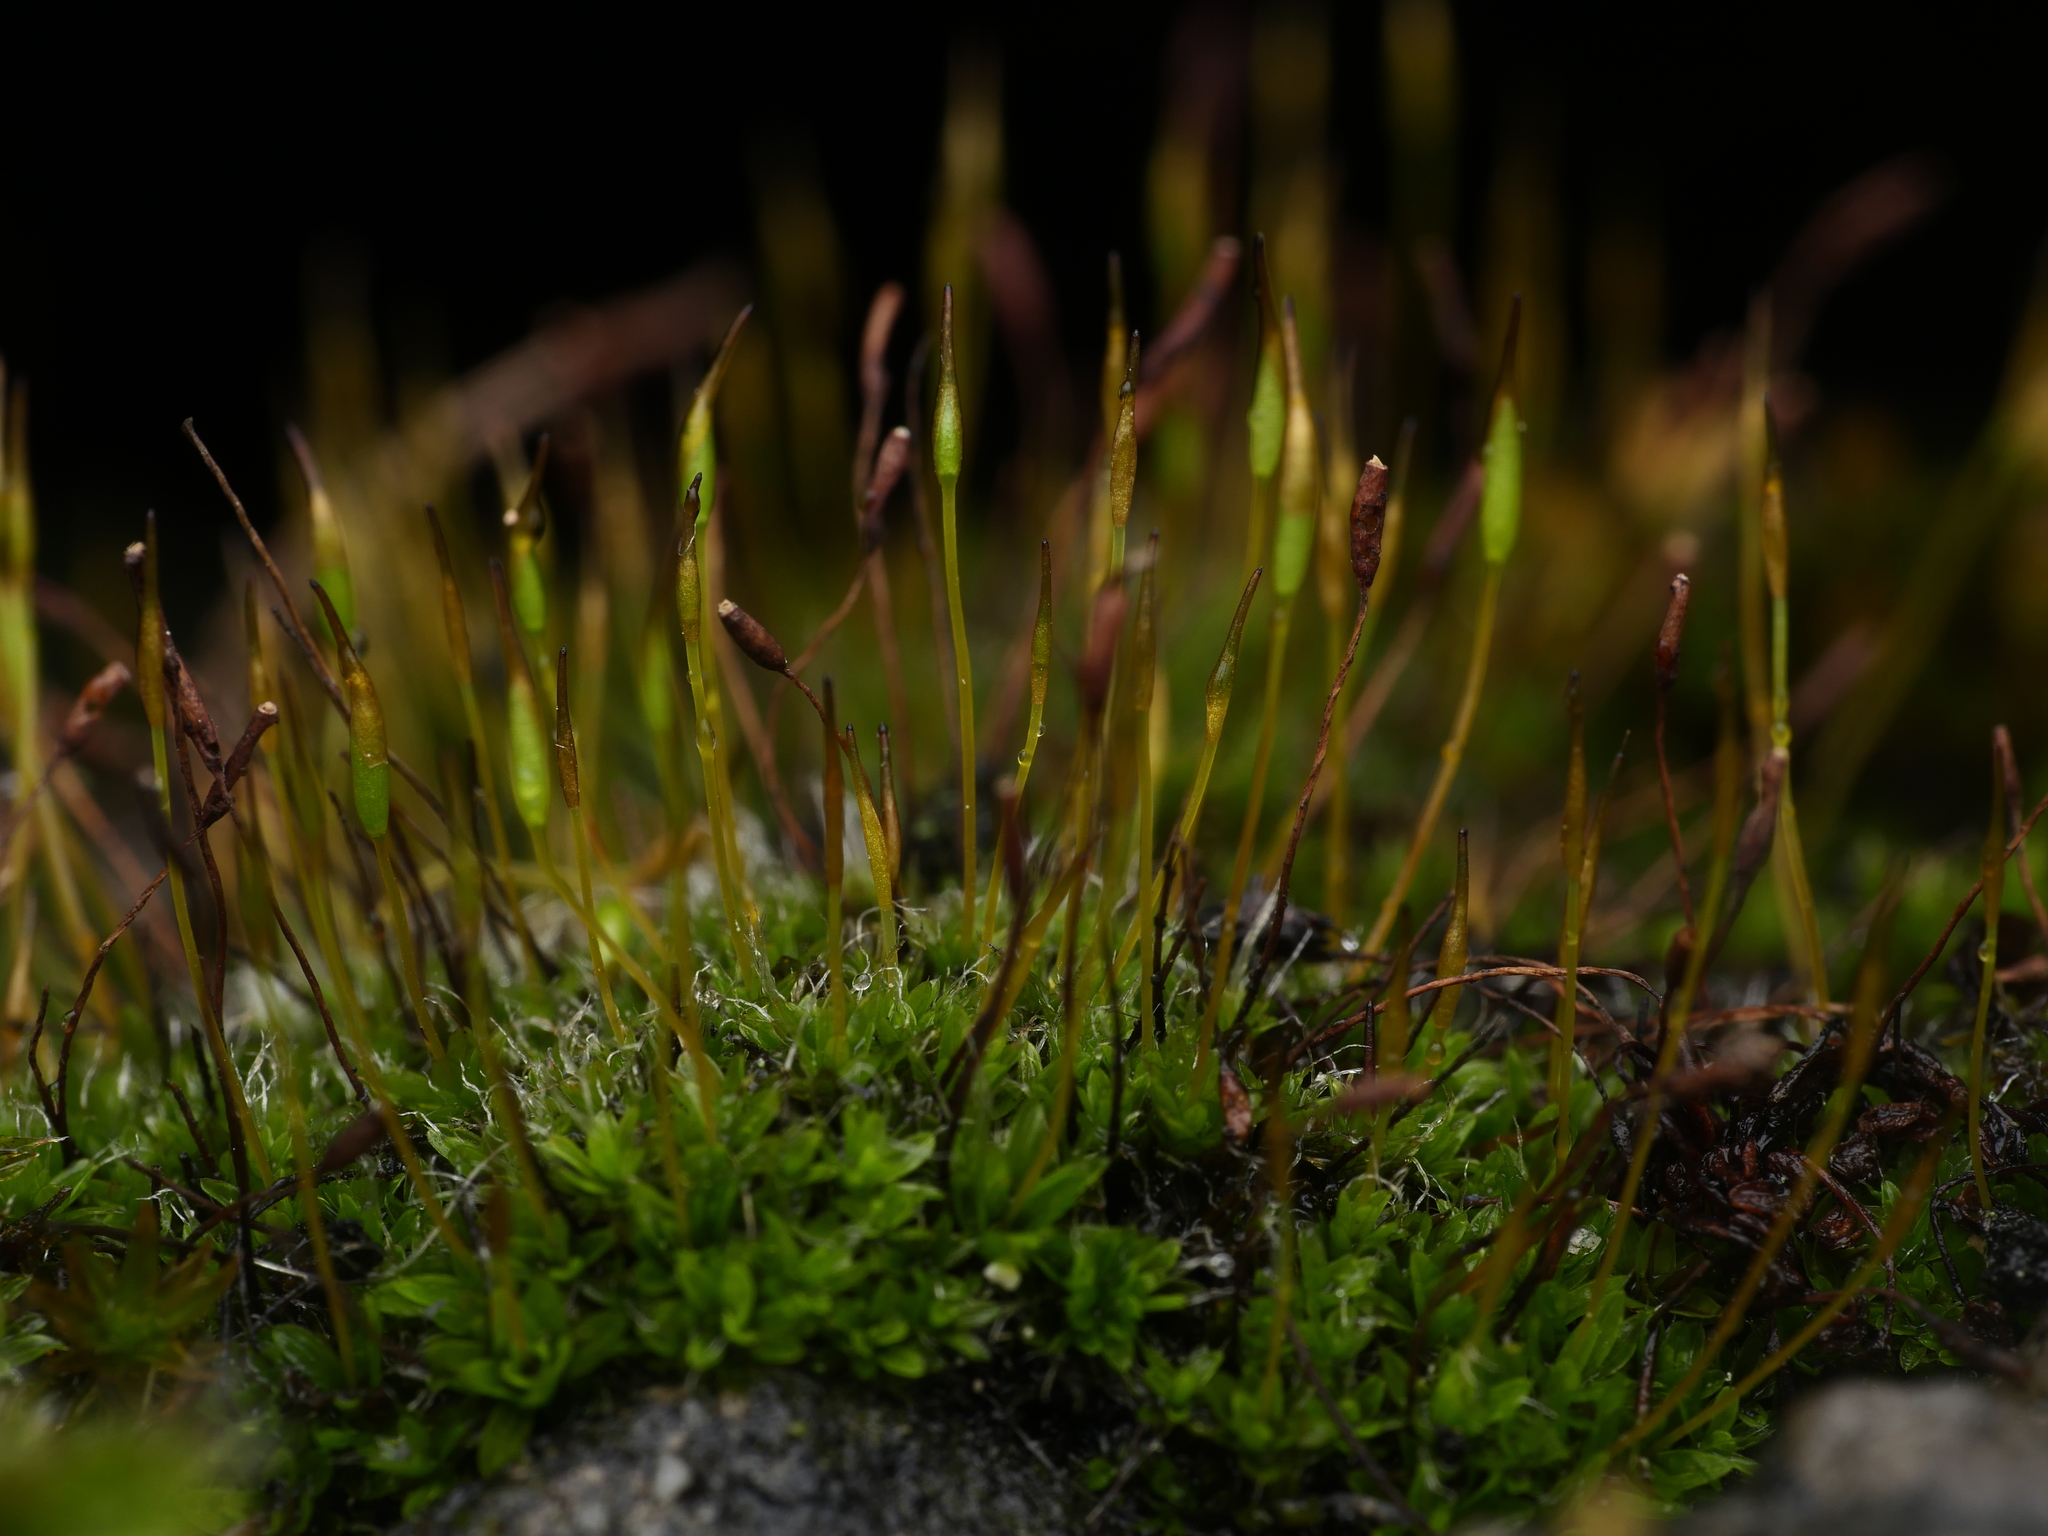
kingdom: Plantae
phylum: Bryophyta
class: Bryopsida
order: Pottiales
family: Pottiaceae
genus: Tortula
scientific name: Tortula muralis
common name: Wall screw-moss
